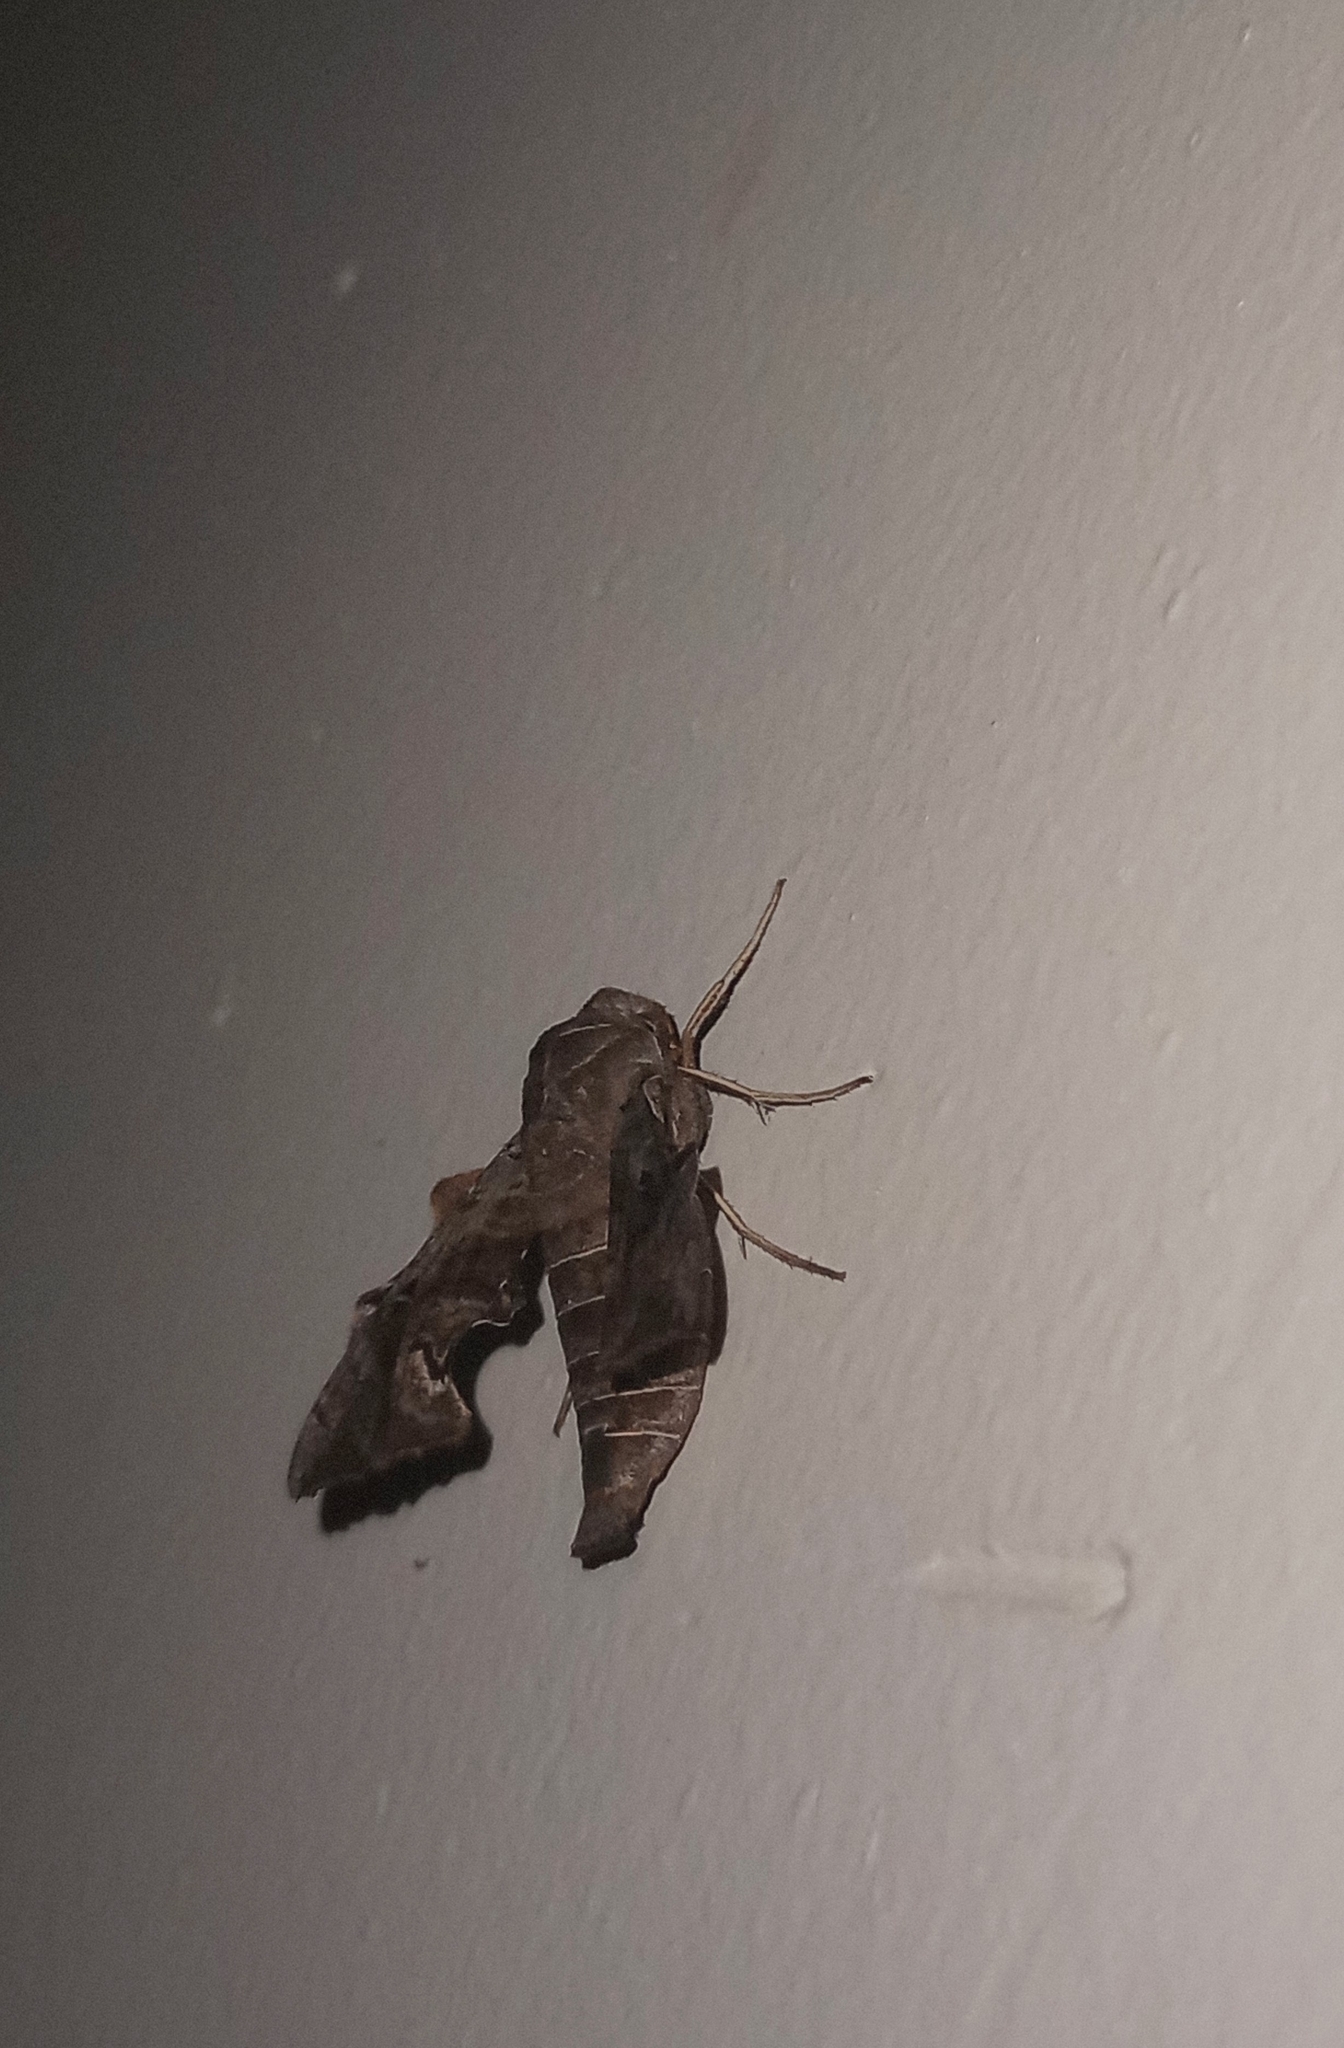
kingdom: Animalia
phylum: Arthropoda
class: Insecta
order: Lepidoptera
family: Sphingidae
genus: Neogurelca
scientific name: Neogurelca hyas
